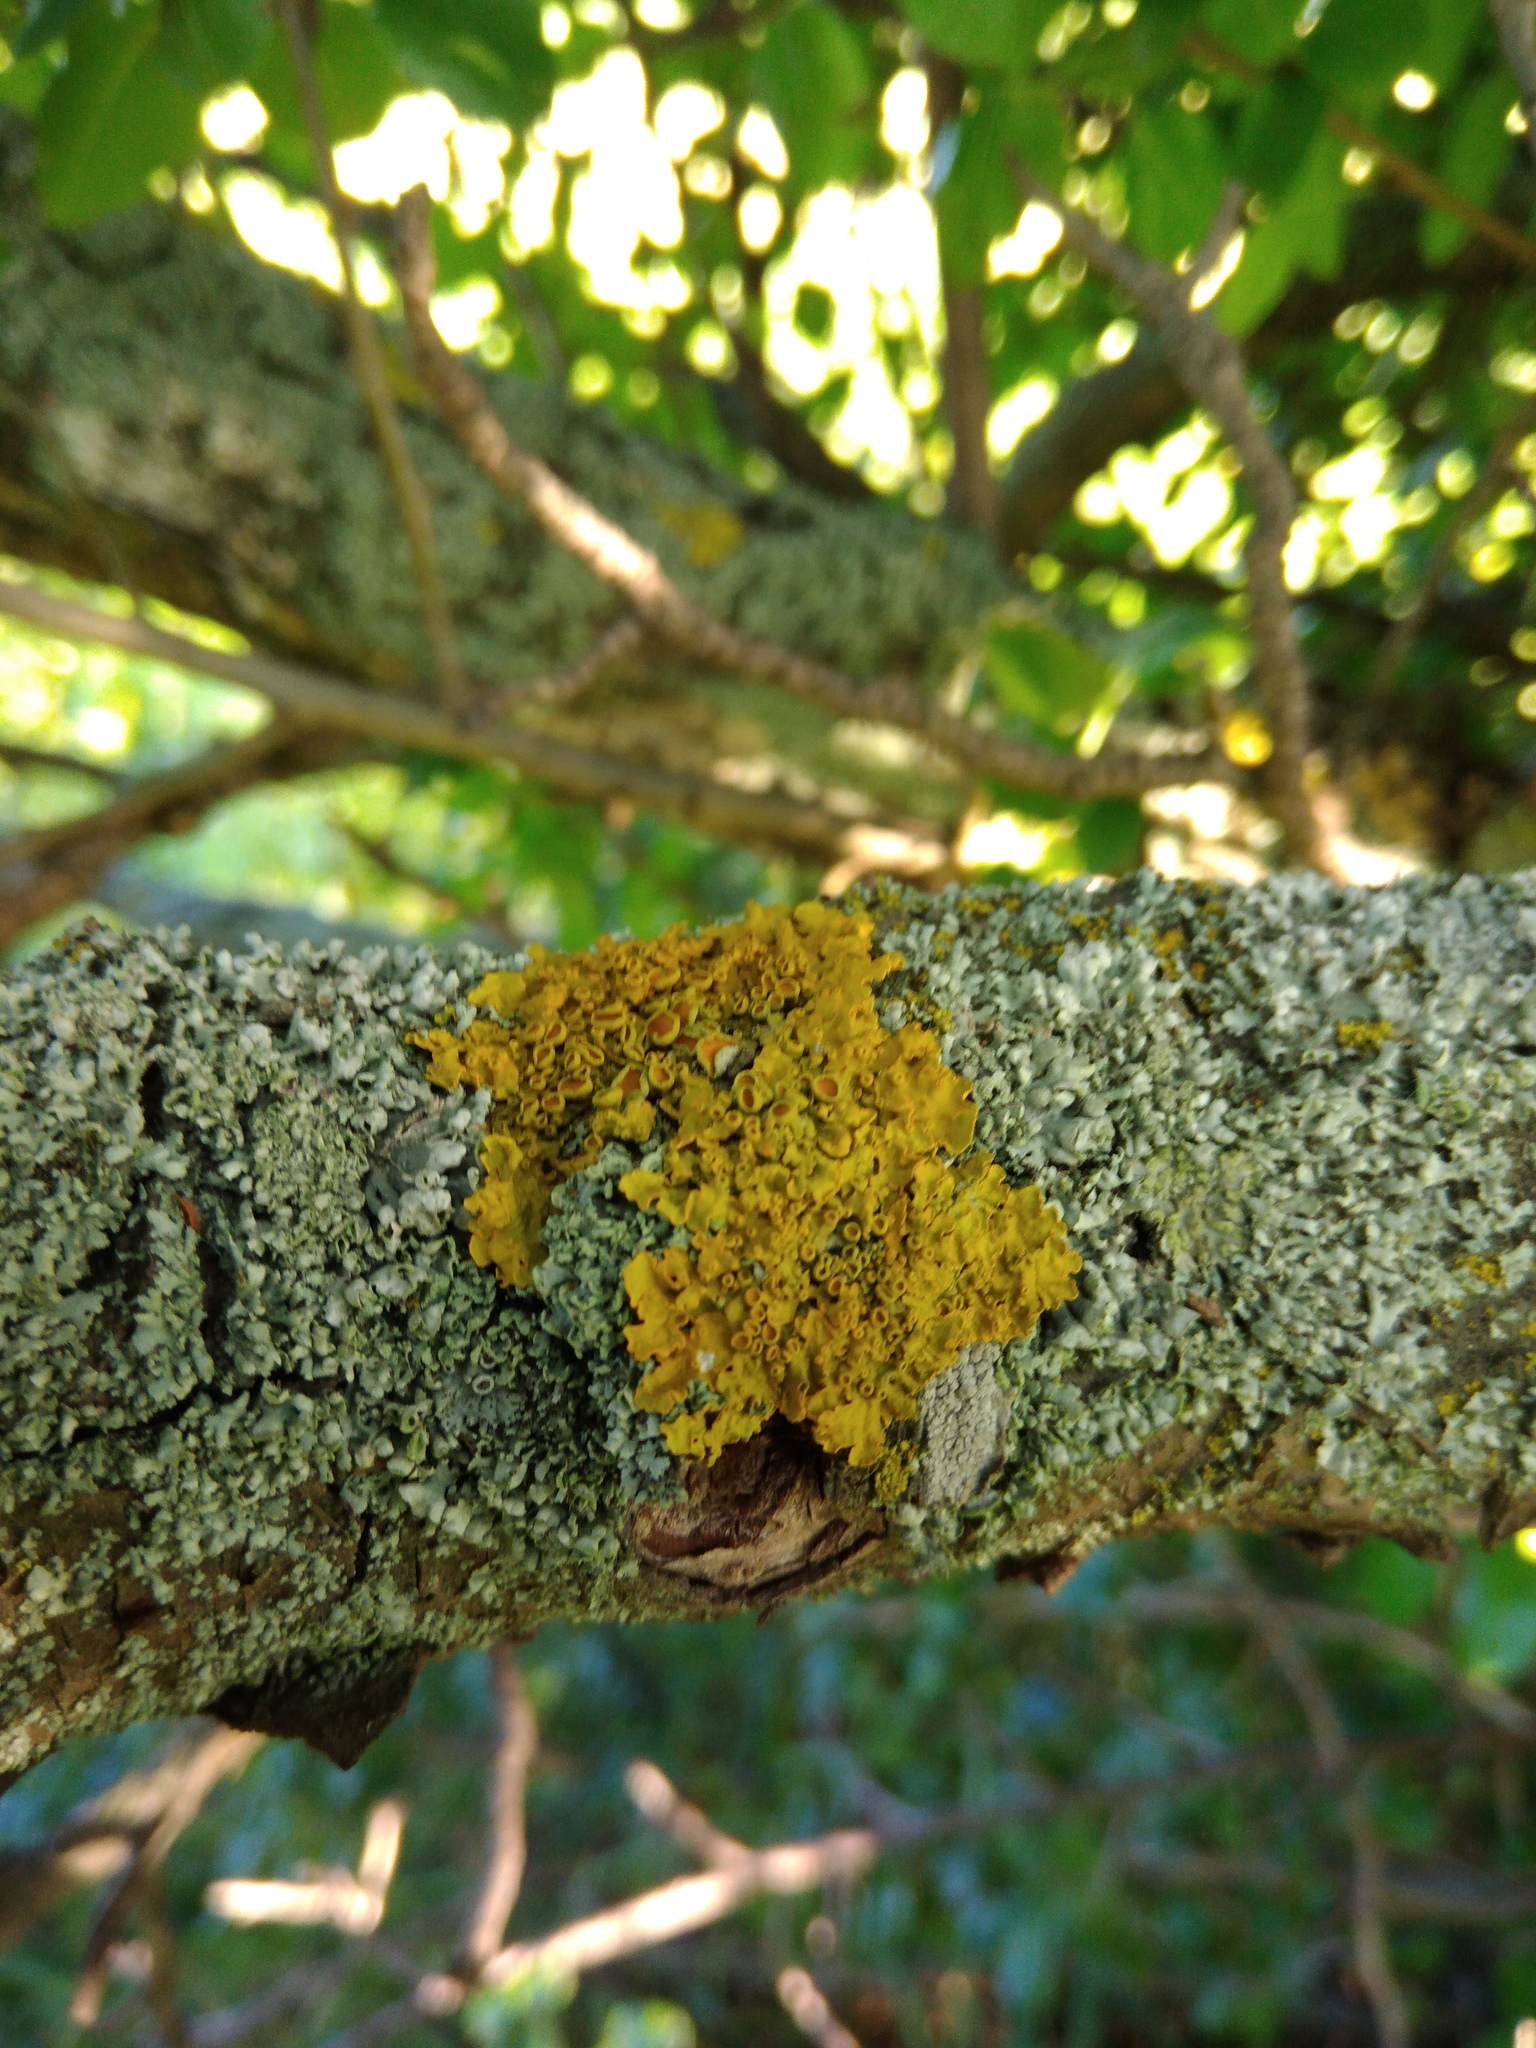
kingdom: Fungi
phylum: Ascomycota
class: Lecanoromycetes
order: Teloschistales
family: Teloschistaceae
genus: Xanthoria
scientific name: Xanthoria parietina
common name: Common orange lichen
